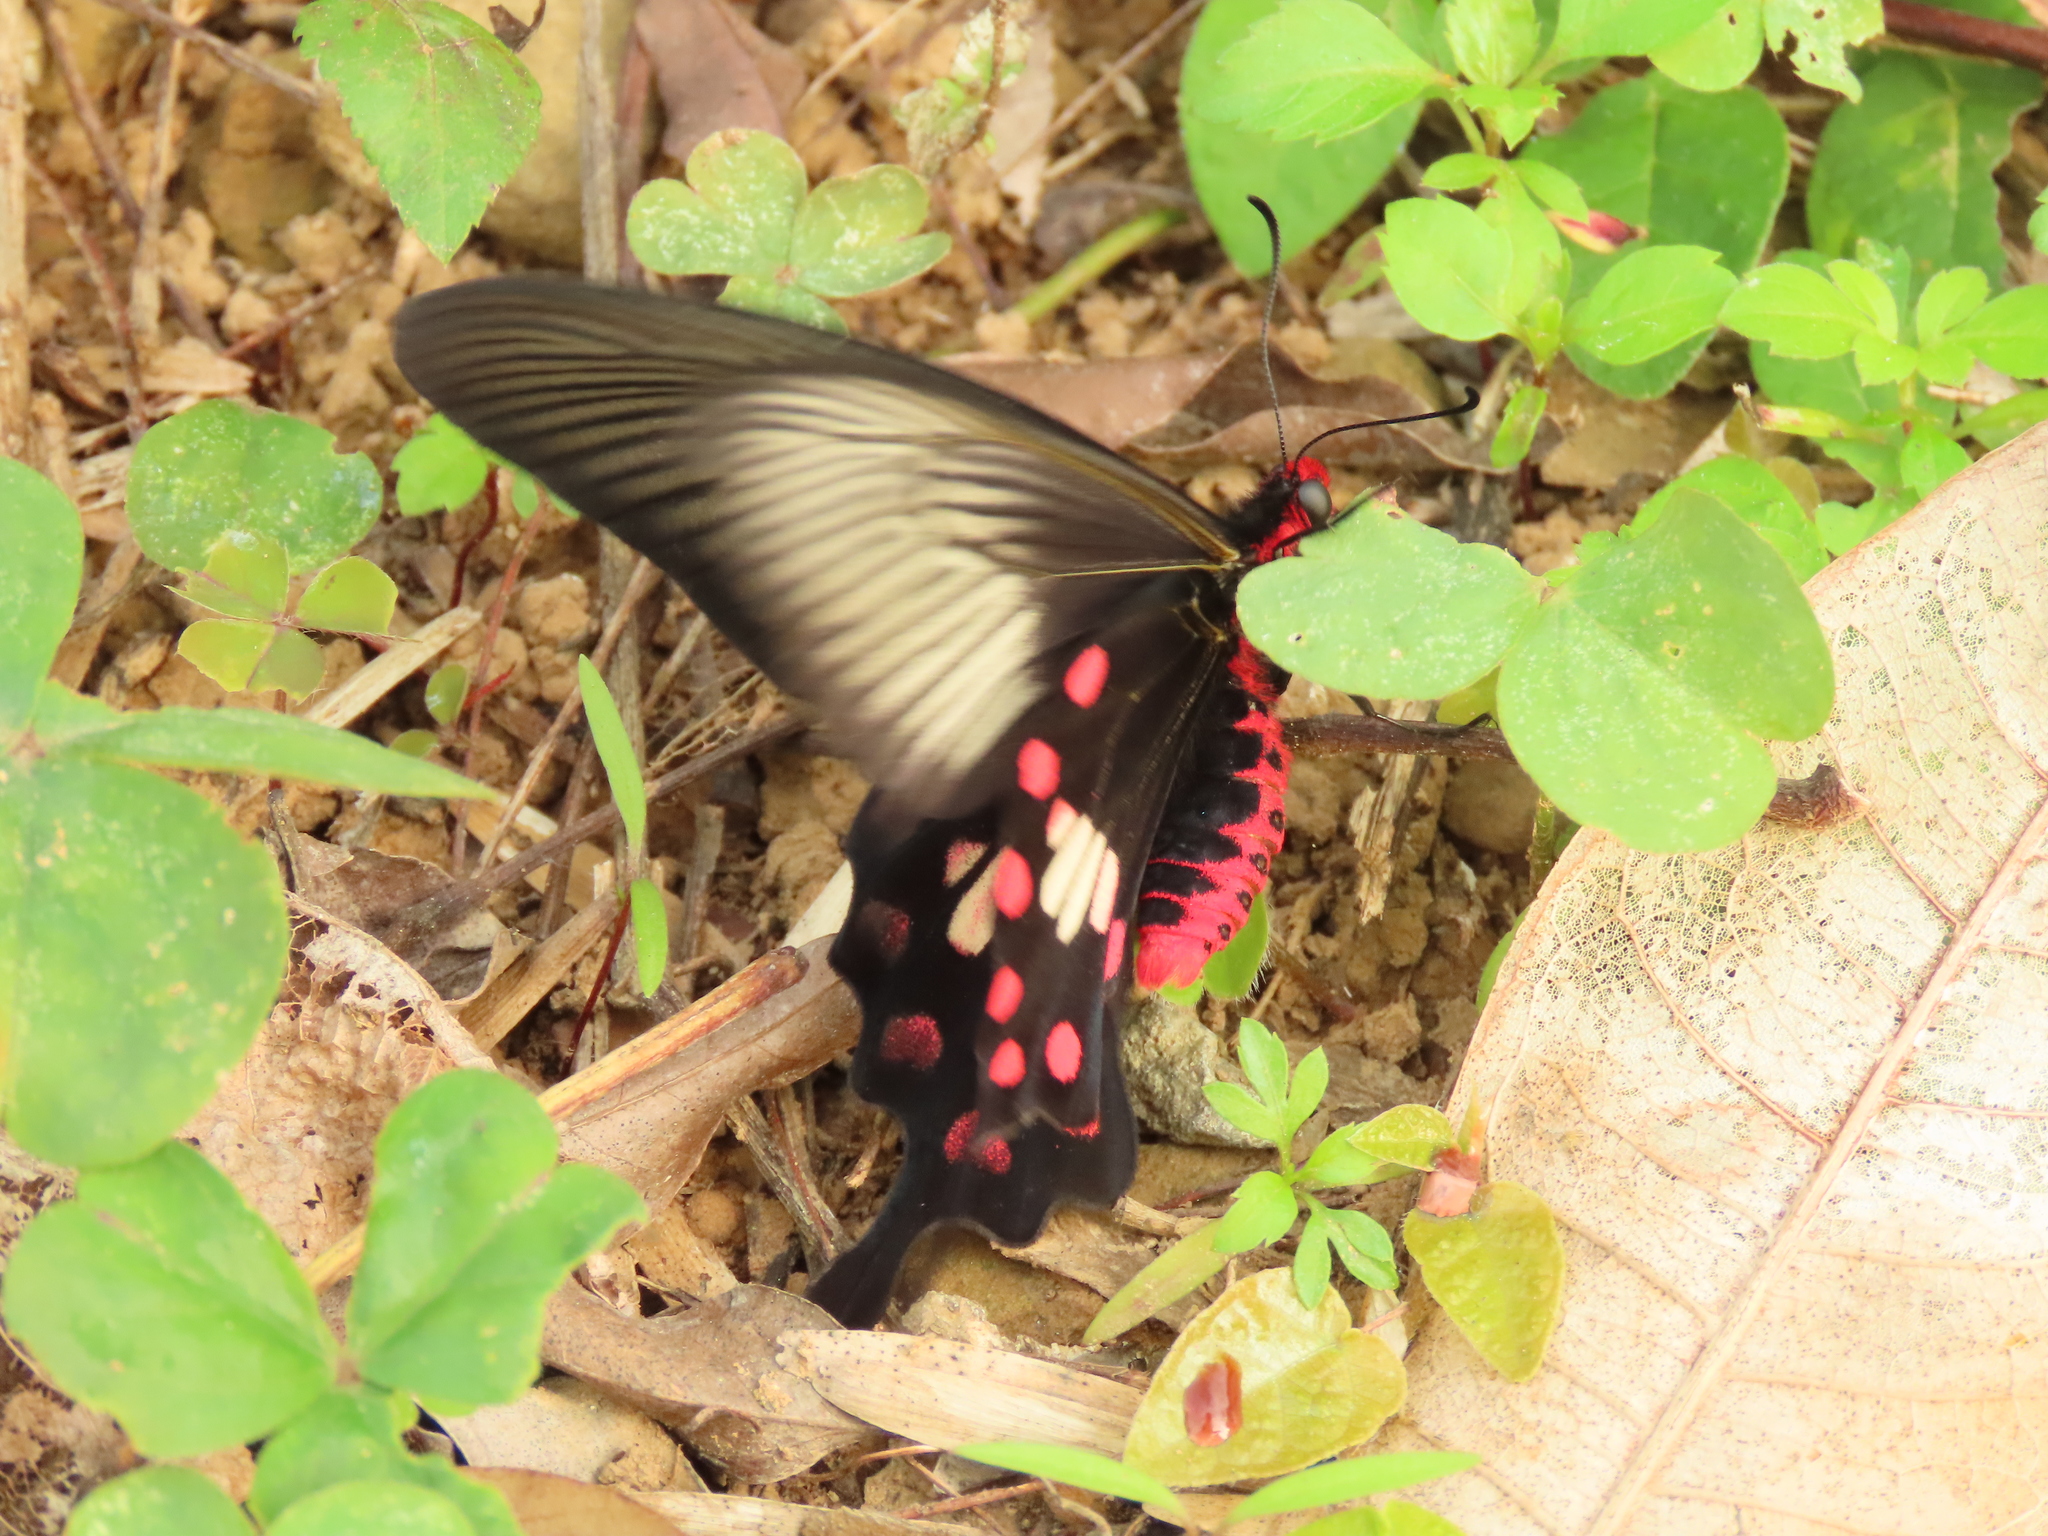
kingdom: Animalia
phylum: Arthropoda
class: Insecta
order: Lepidoptera
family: Papilionidae
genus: Pachliopta
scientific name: Pachliopta aristolochiae
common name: Common rose
